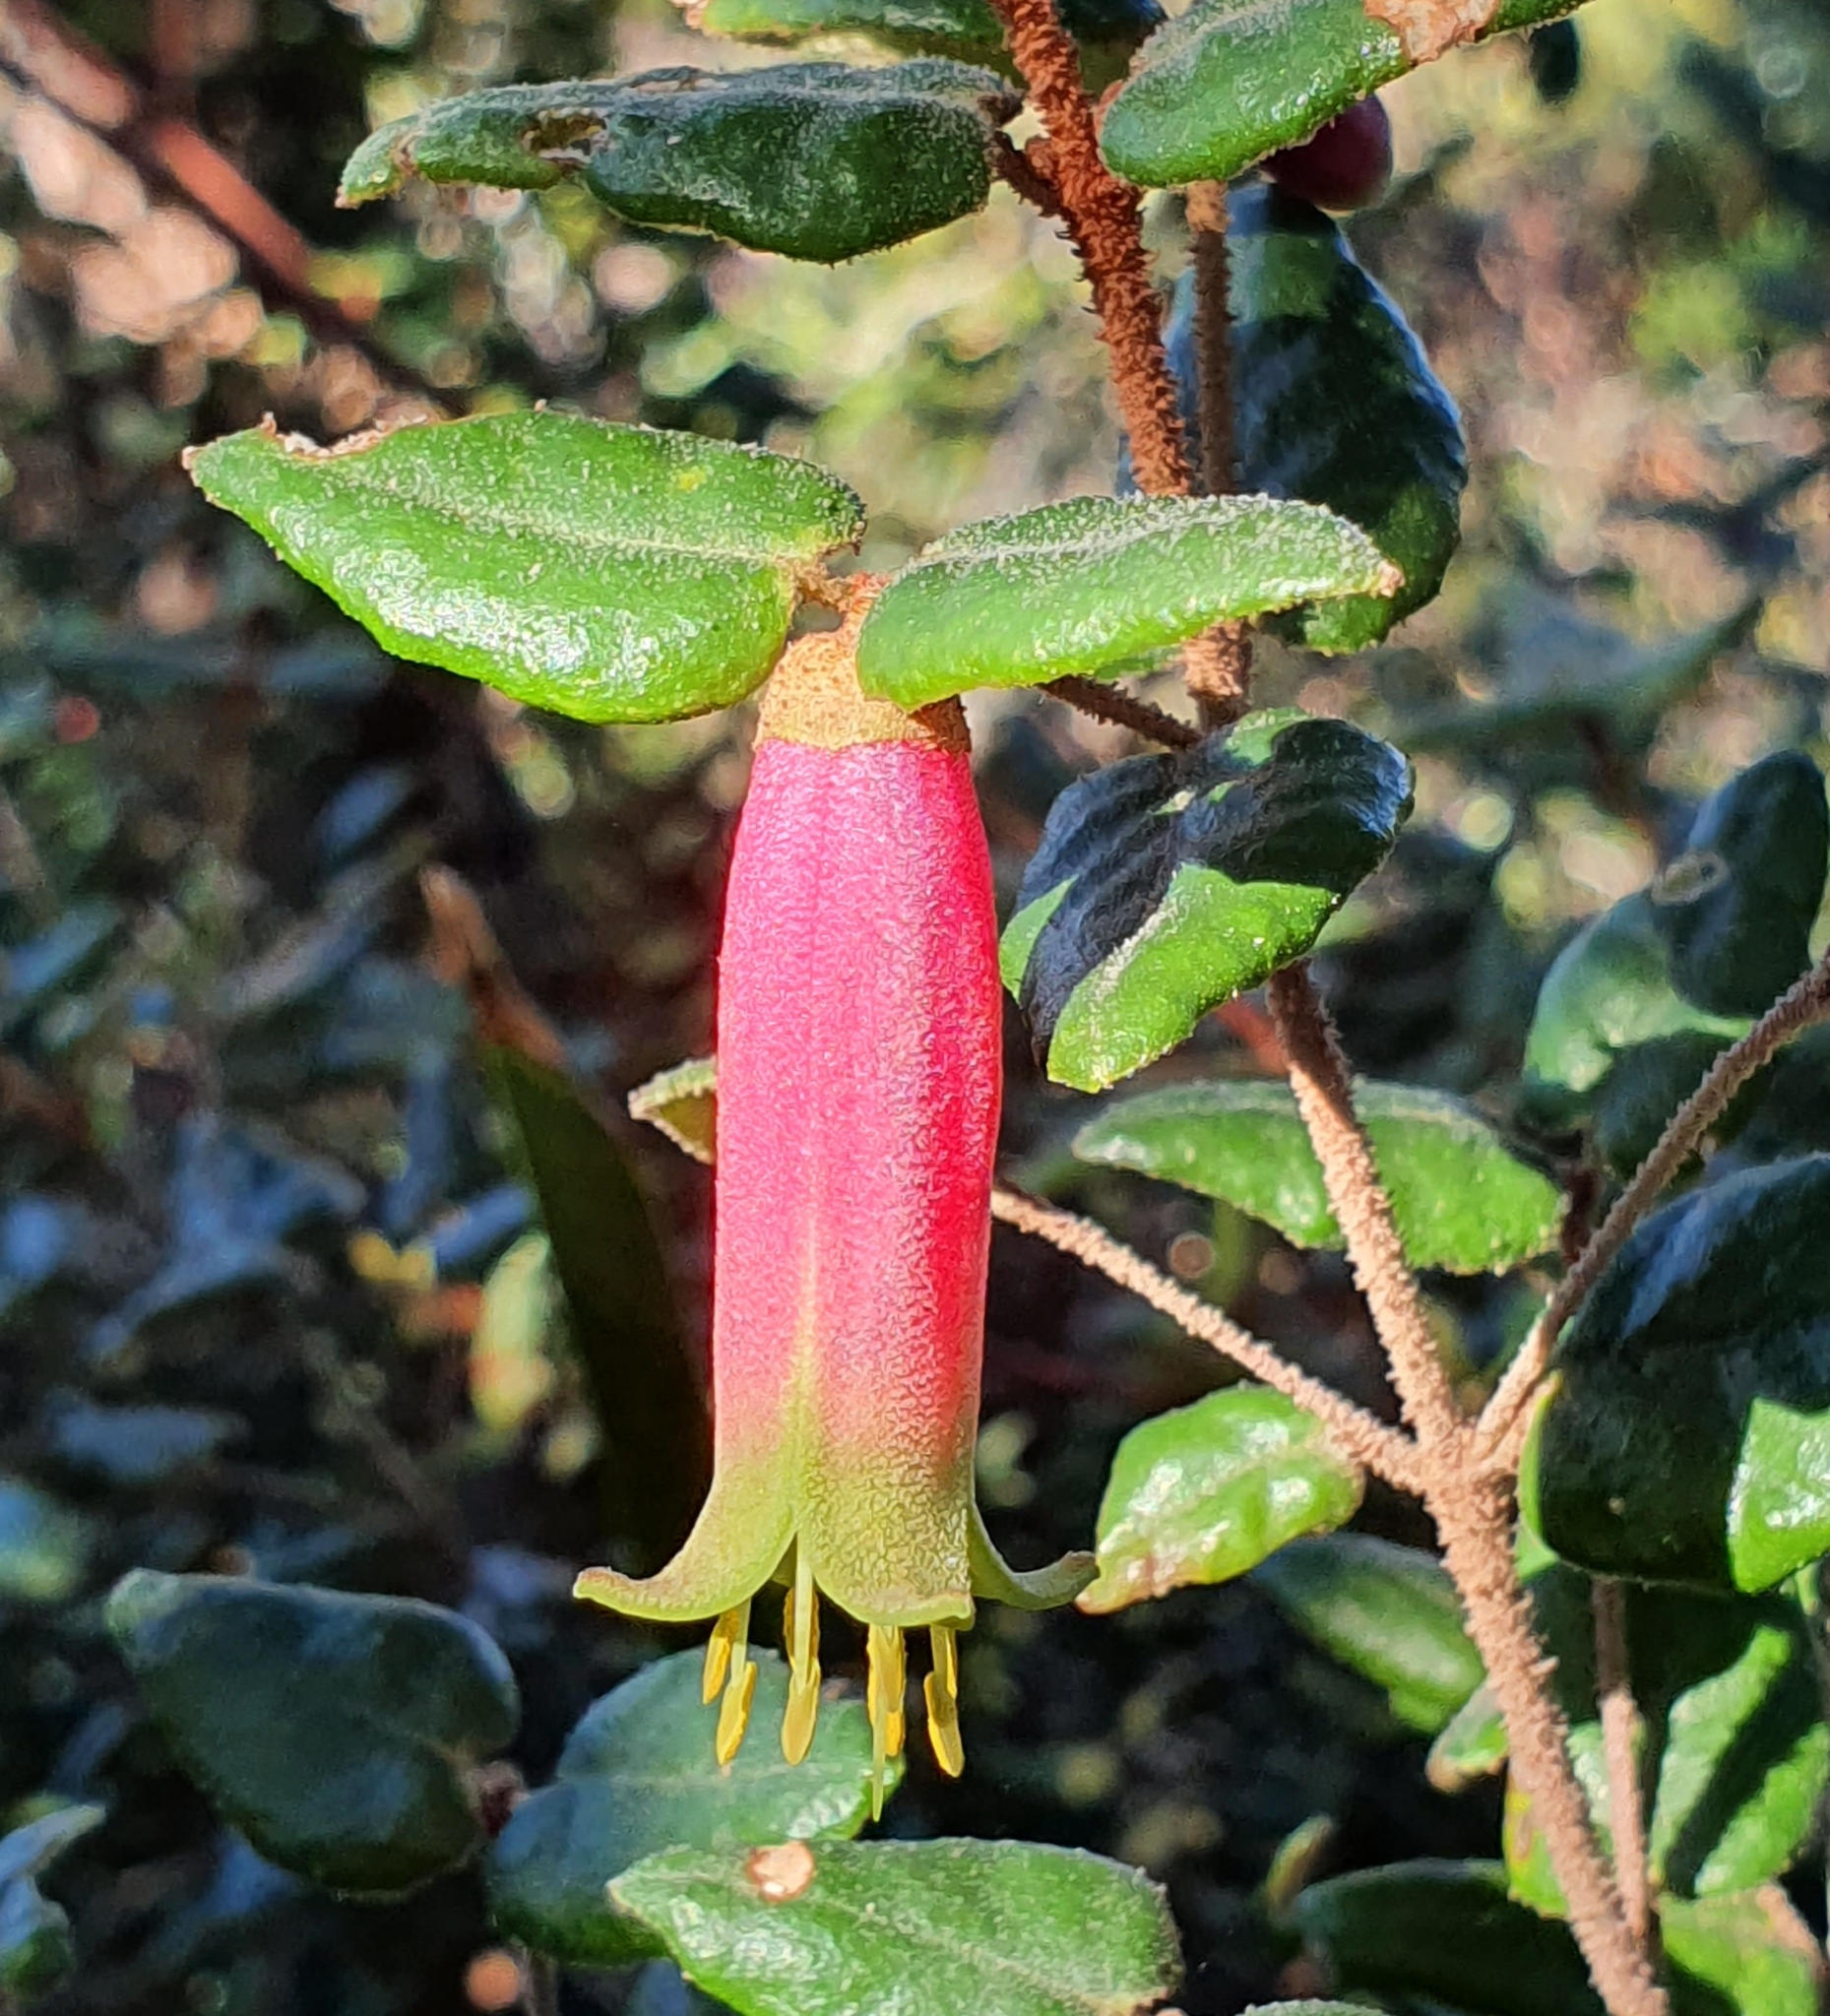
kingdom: Plantae
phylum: Tracheophyta
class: Magnoliopsida
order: Sapindales
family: Rutaceae
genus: Correa
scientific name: Correa reflexa
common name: Common correa
